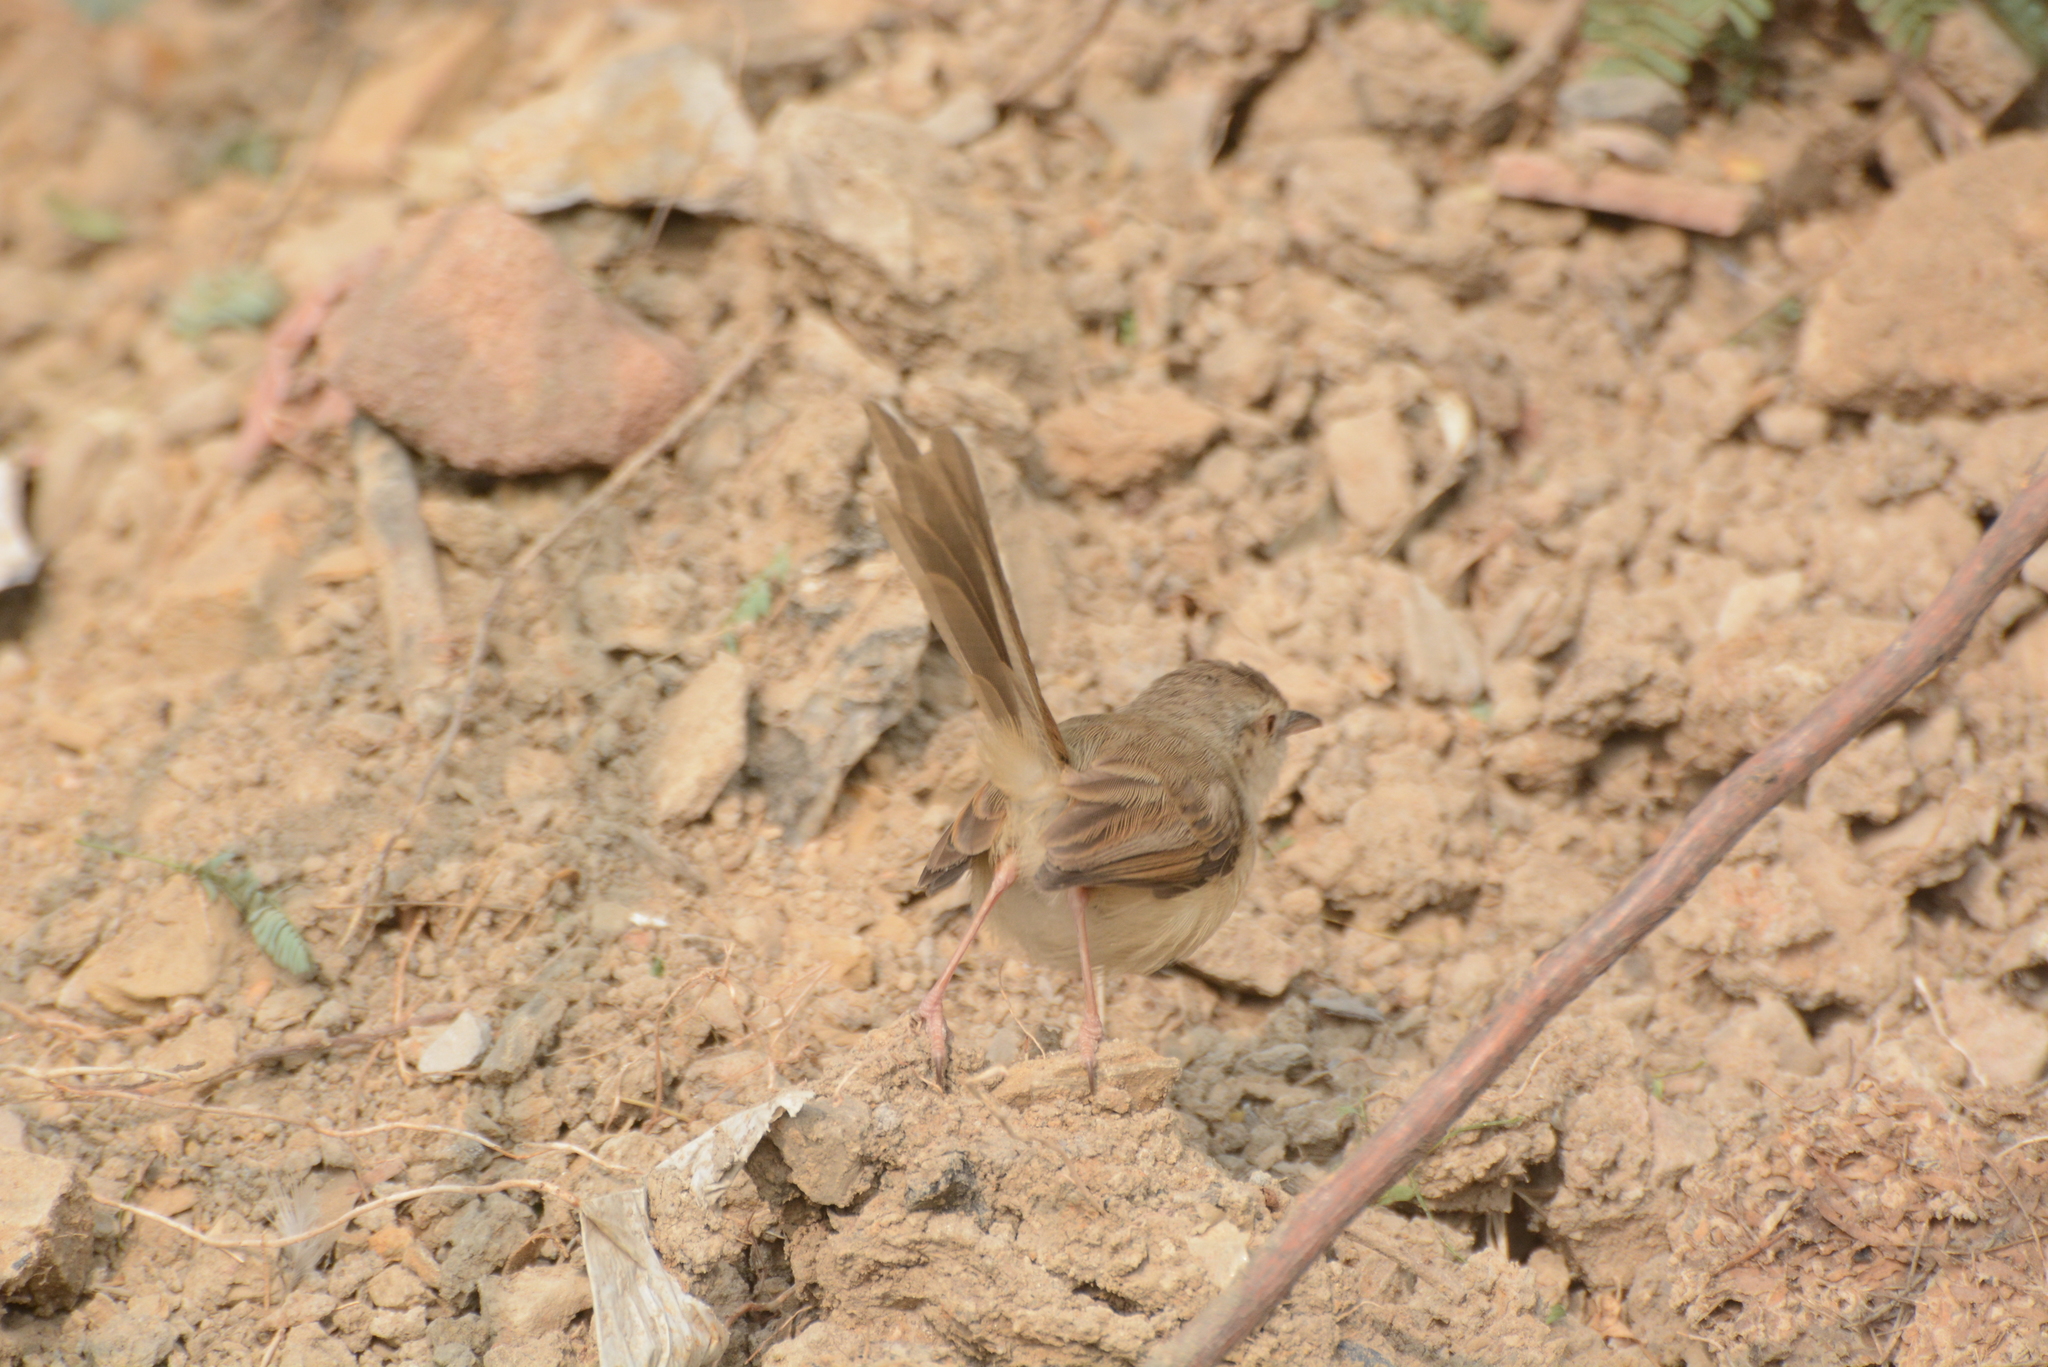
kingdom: Animalia
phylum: Chordata
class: Aves
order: Passeriformes
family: Cisticolidae
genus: Prinia
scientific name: Prinia sylvatica
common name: Jungle prinia
